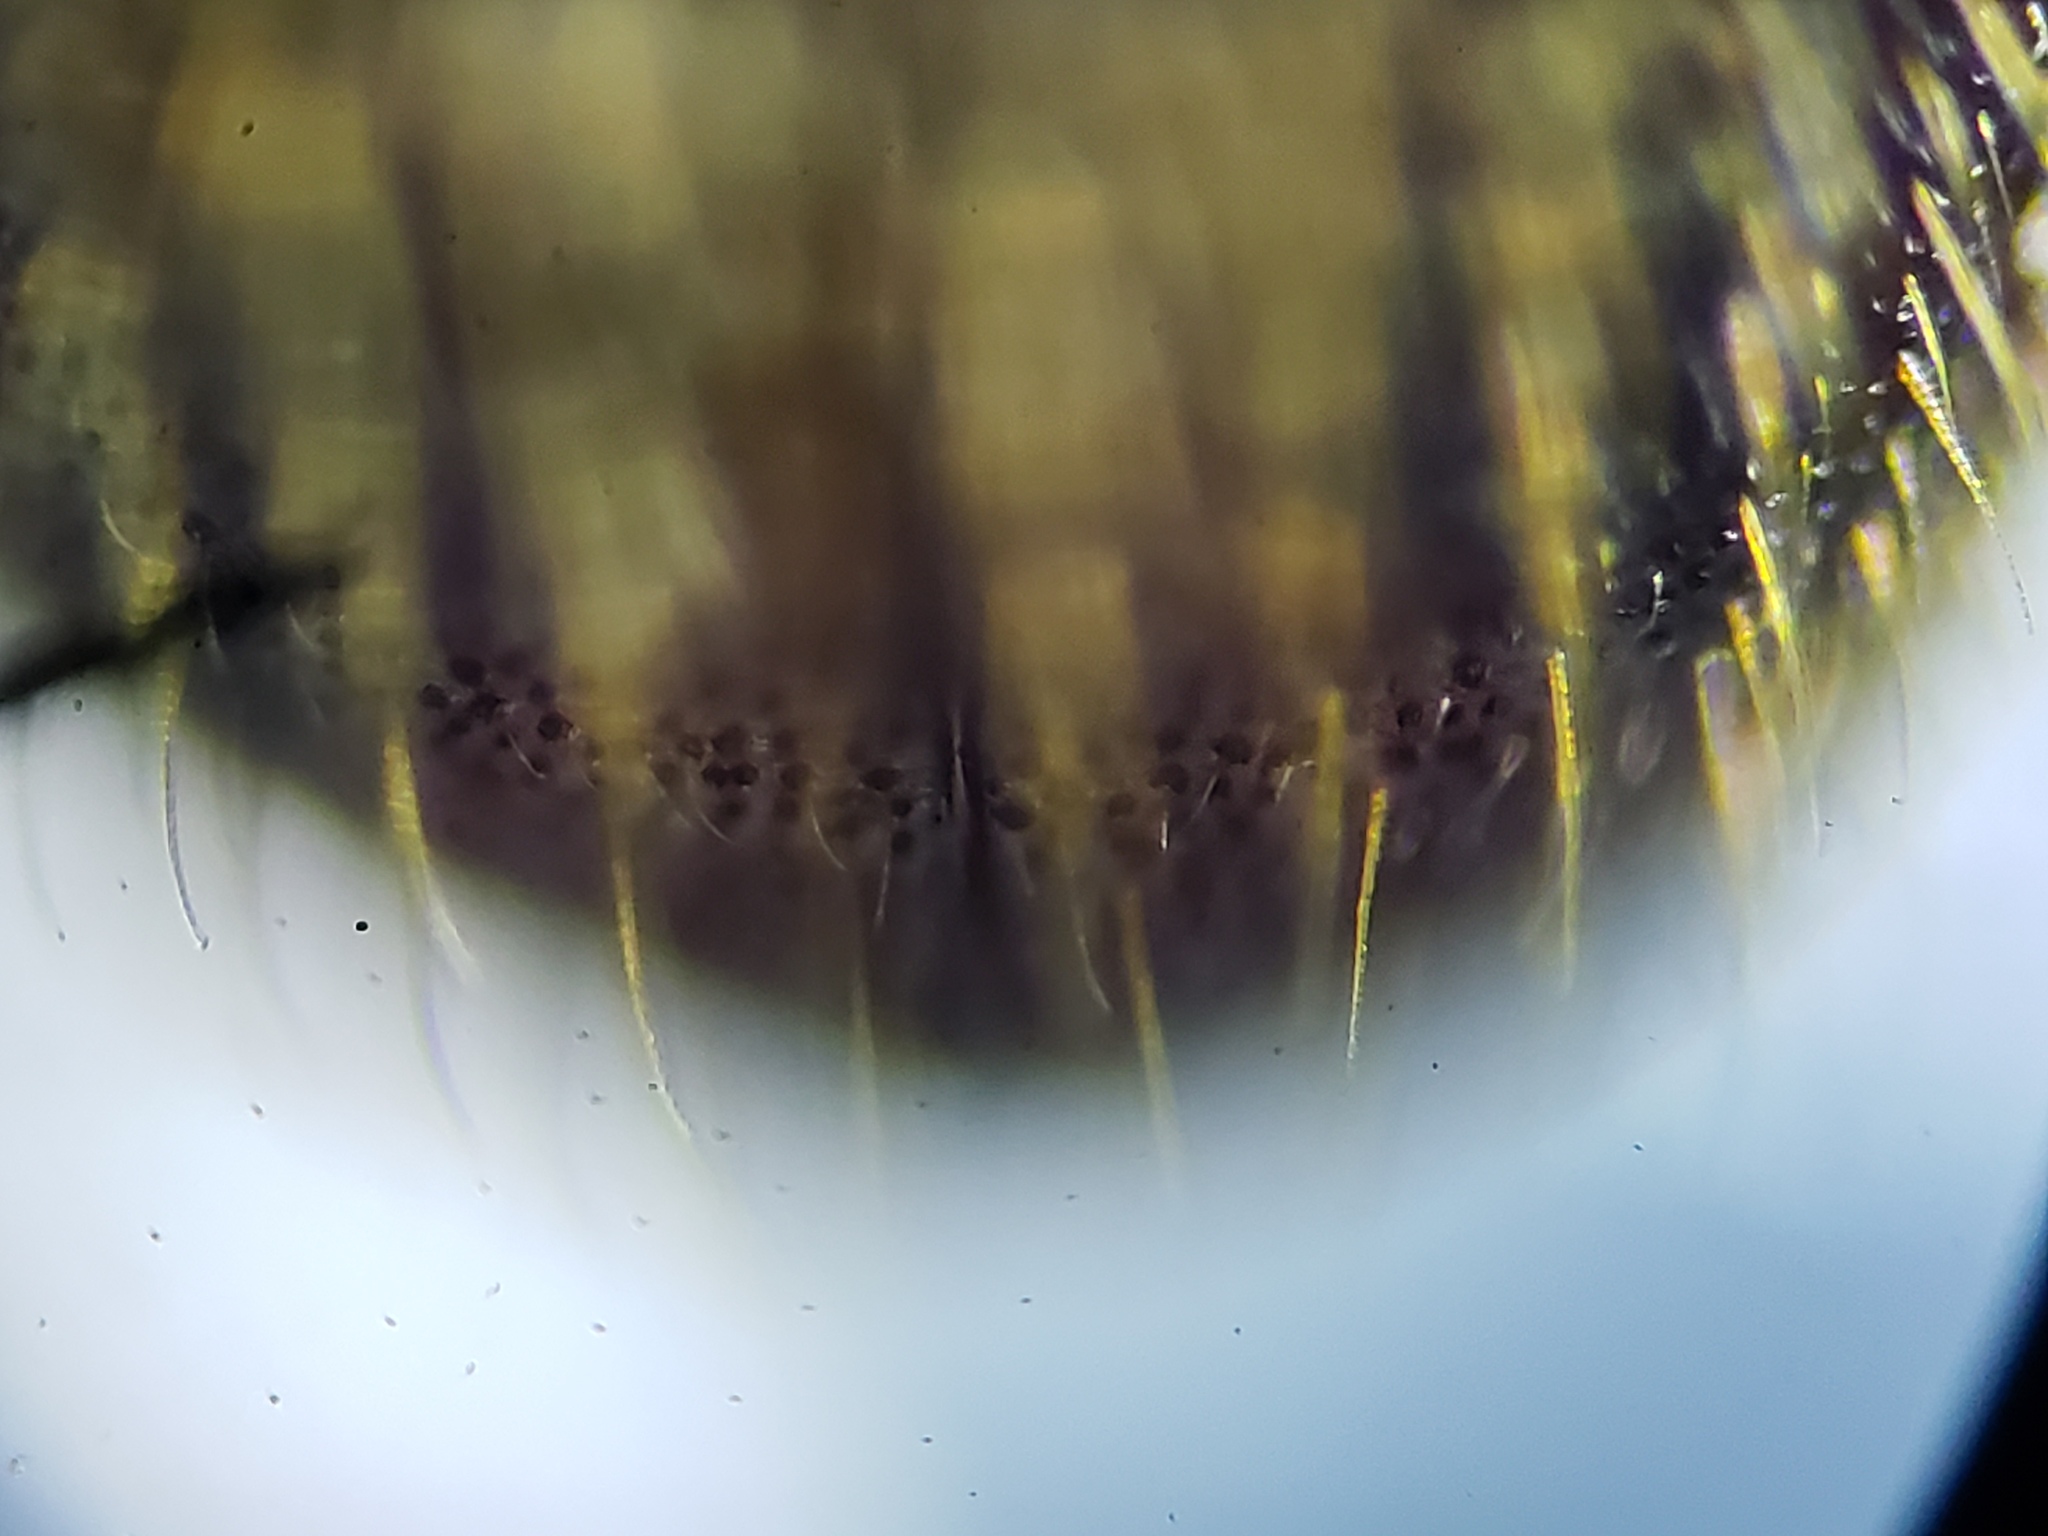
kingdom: Animalia
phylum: Arthropoda
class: Insecta
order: Coleoptera
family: Curculionidae
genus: Xylosandrus
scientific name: Xylosandrus crassiusculus
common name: Granulate ambrosia beetle
